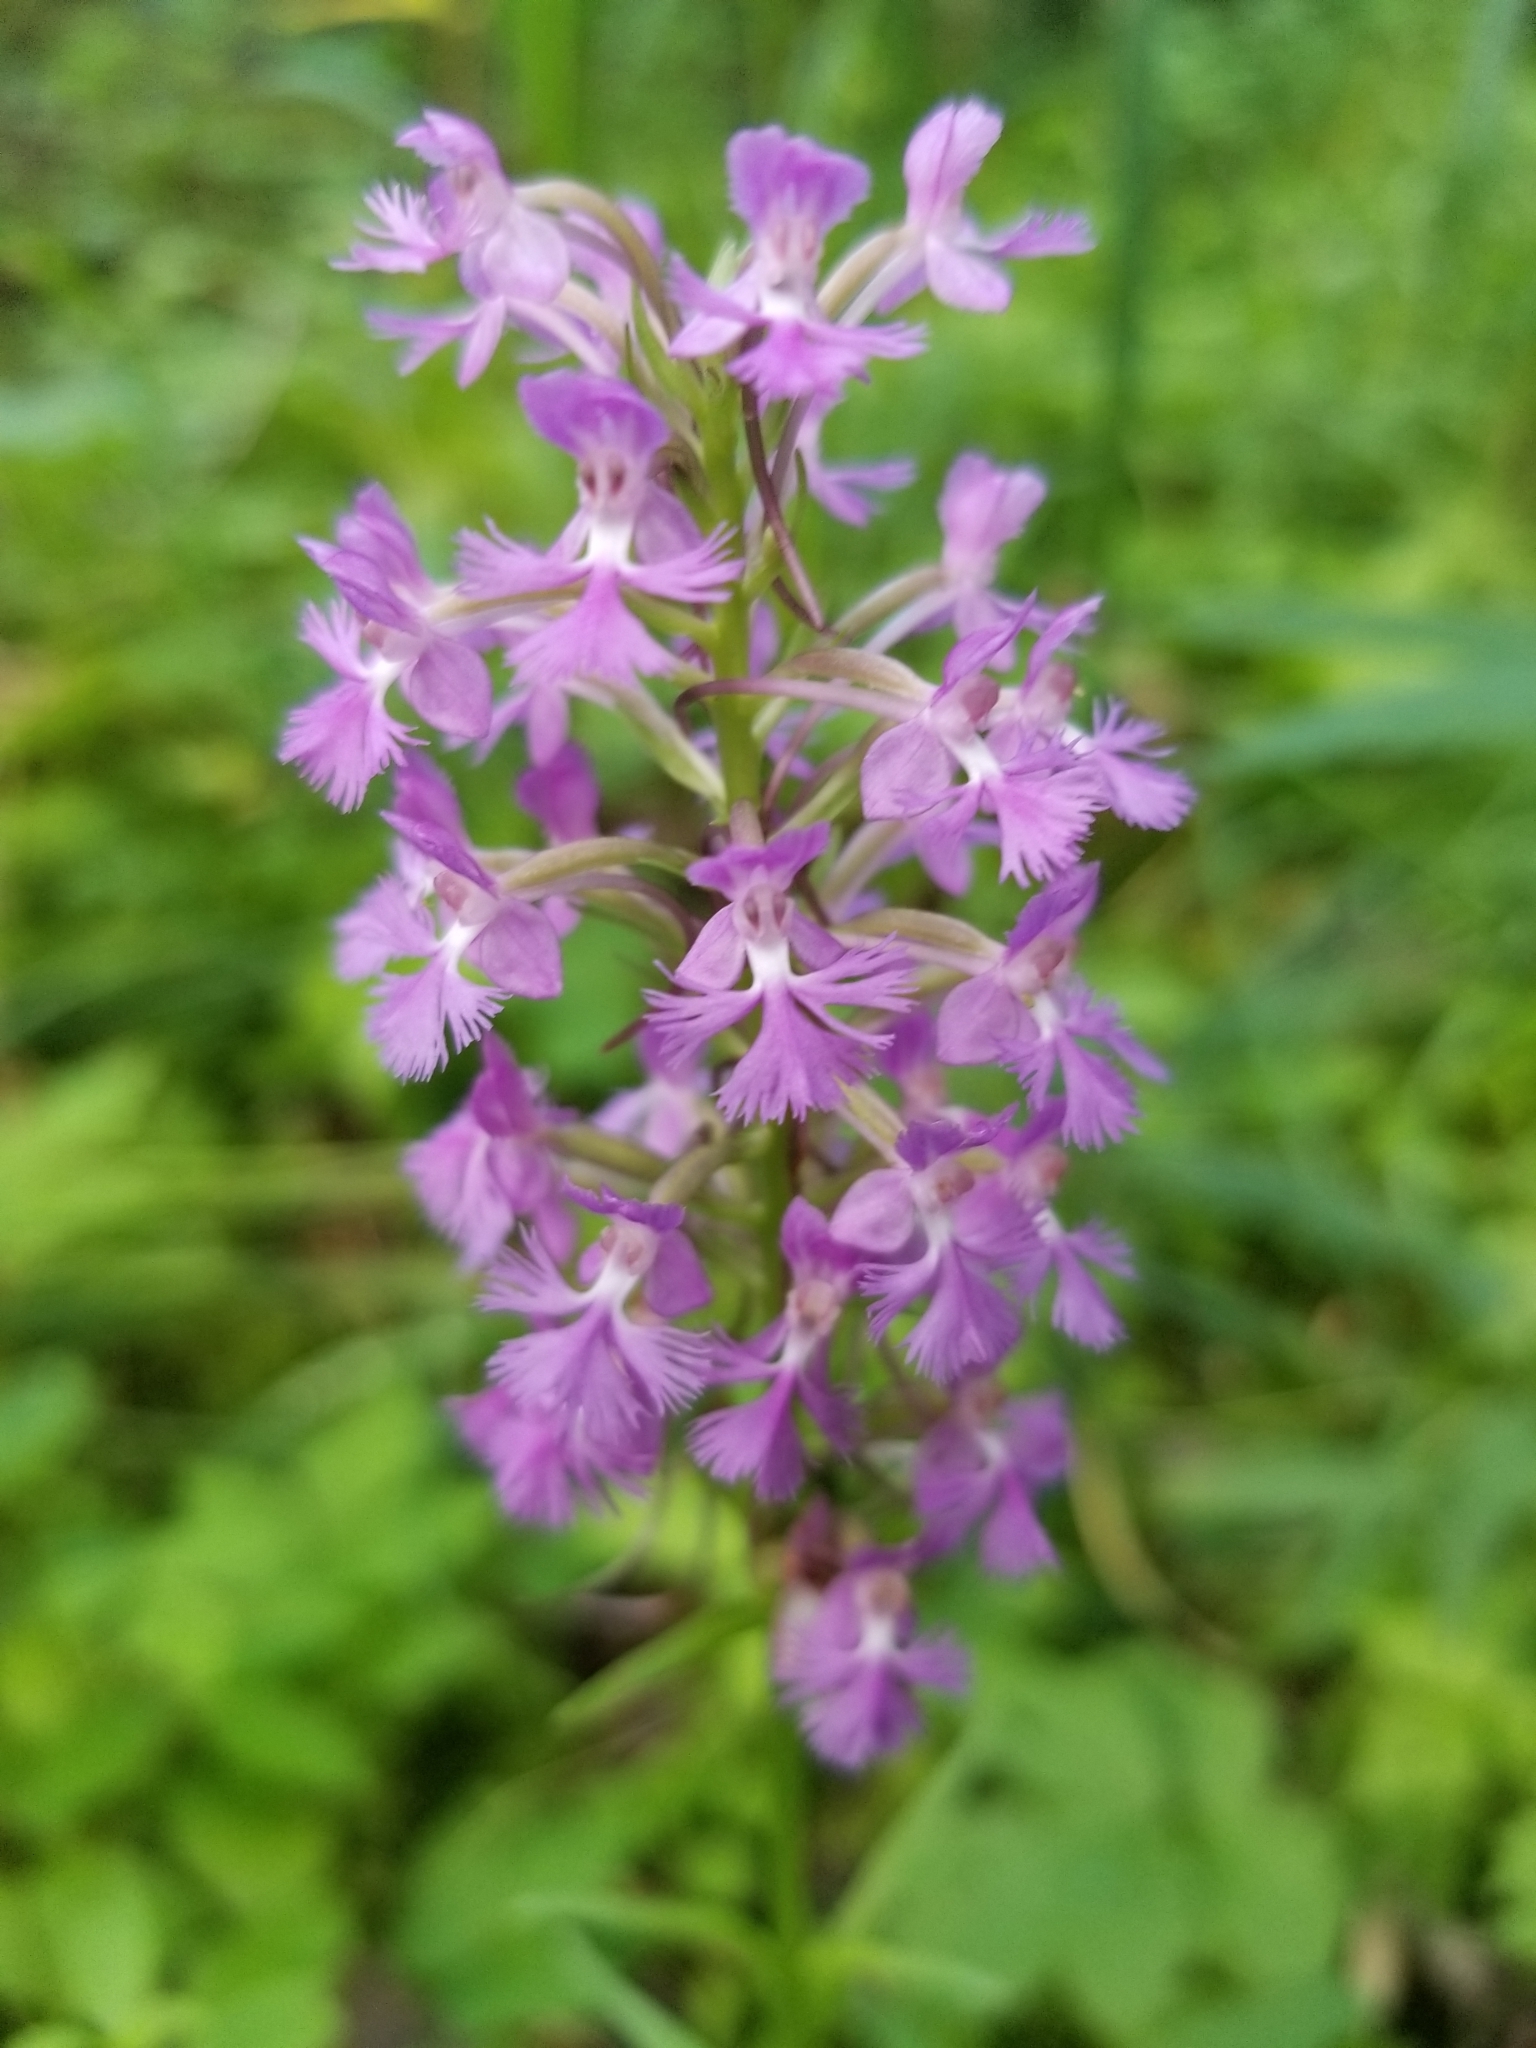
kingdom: Plantae
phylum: Tracheophyta
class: Liliopsida
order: Asparagales
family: Orchidaceae
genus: Platanthera
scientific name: Platanthera psycodes
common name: Lesser purple fringed orchid
